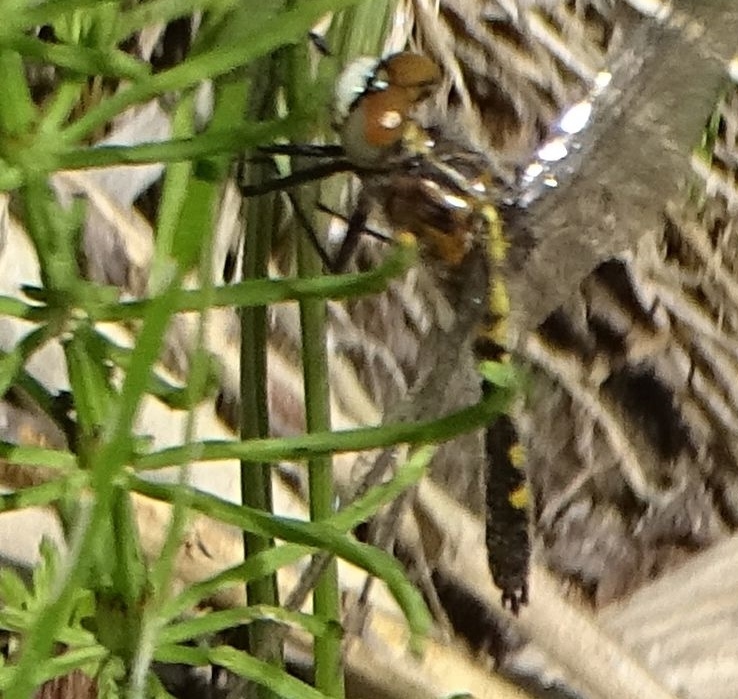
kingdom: Animalia
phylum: Arthropoda
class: Insecta
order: Odonata
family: Libellulidae
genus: Leucorrhinia
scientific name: Leucorrhinia intacta
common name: Dot-tailed whiteface
